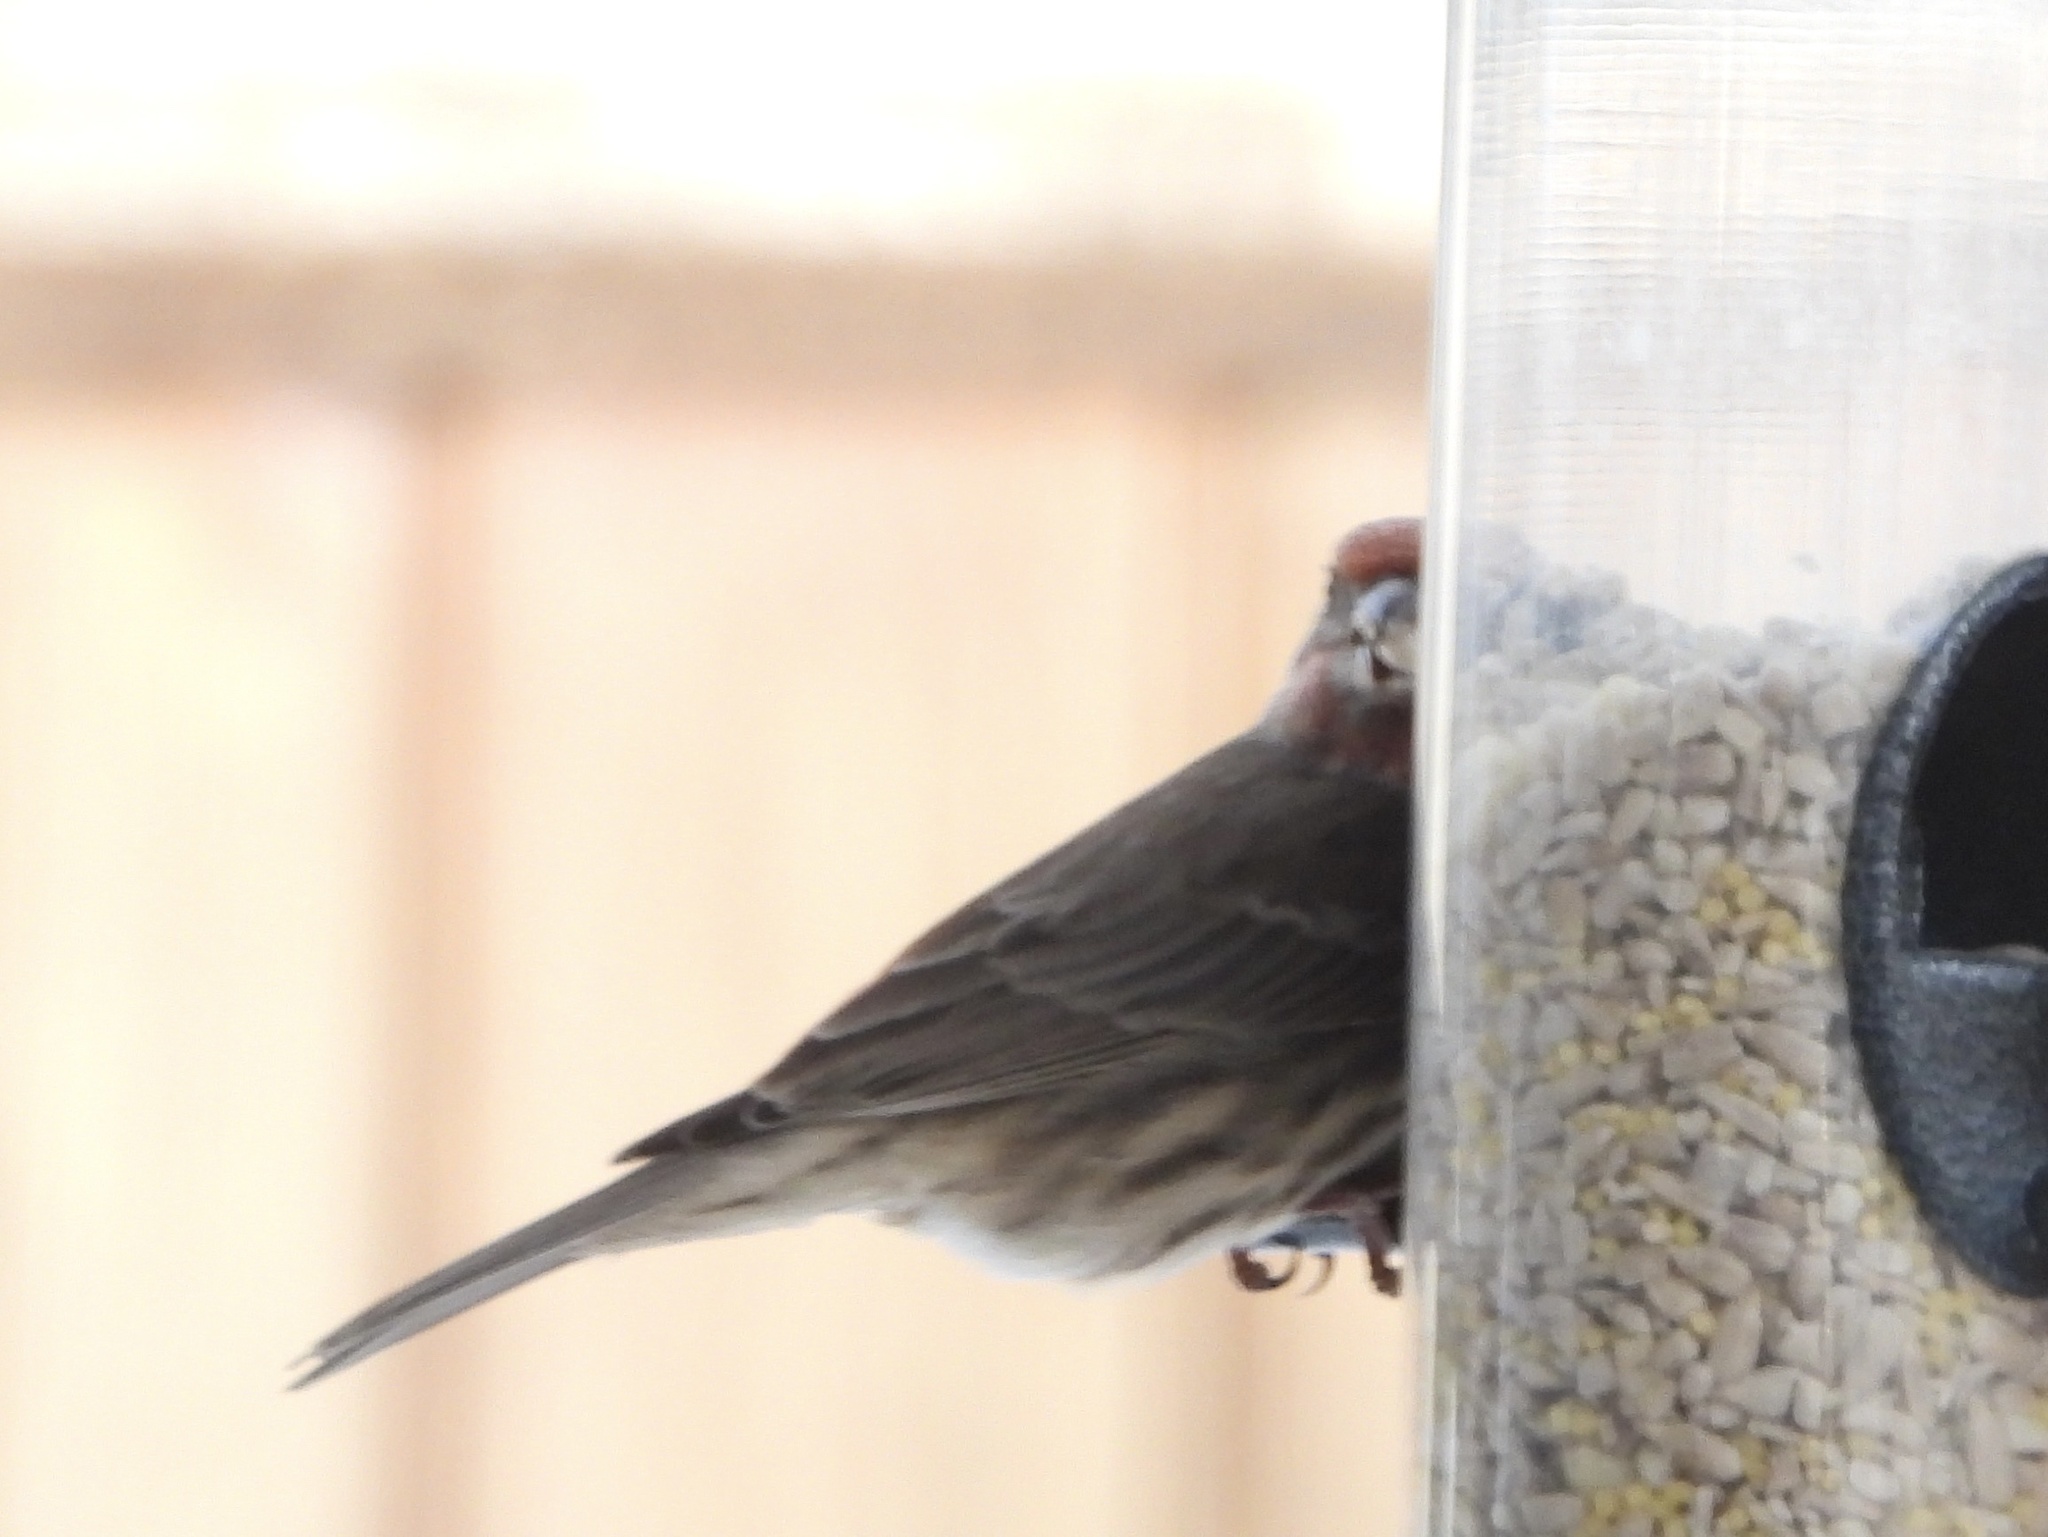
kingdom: Animalia
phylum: Chordata
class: Aves
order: Passeriformes
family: Fringillidae
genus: Haemorhous
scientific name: Haemorhous mexicanus
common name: House finch
